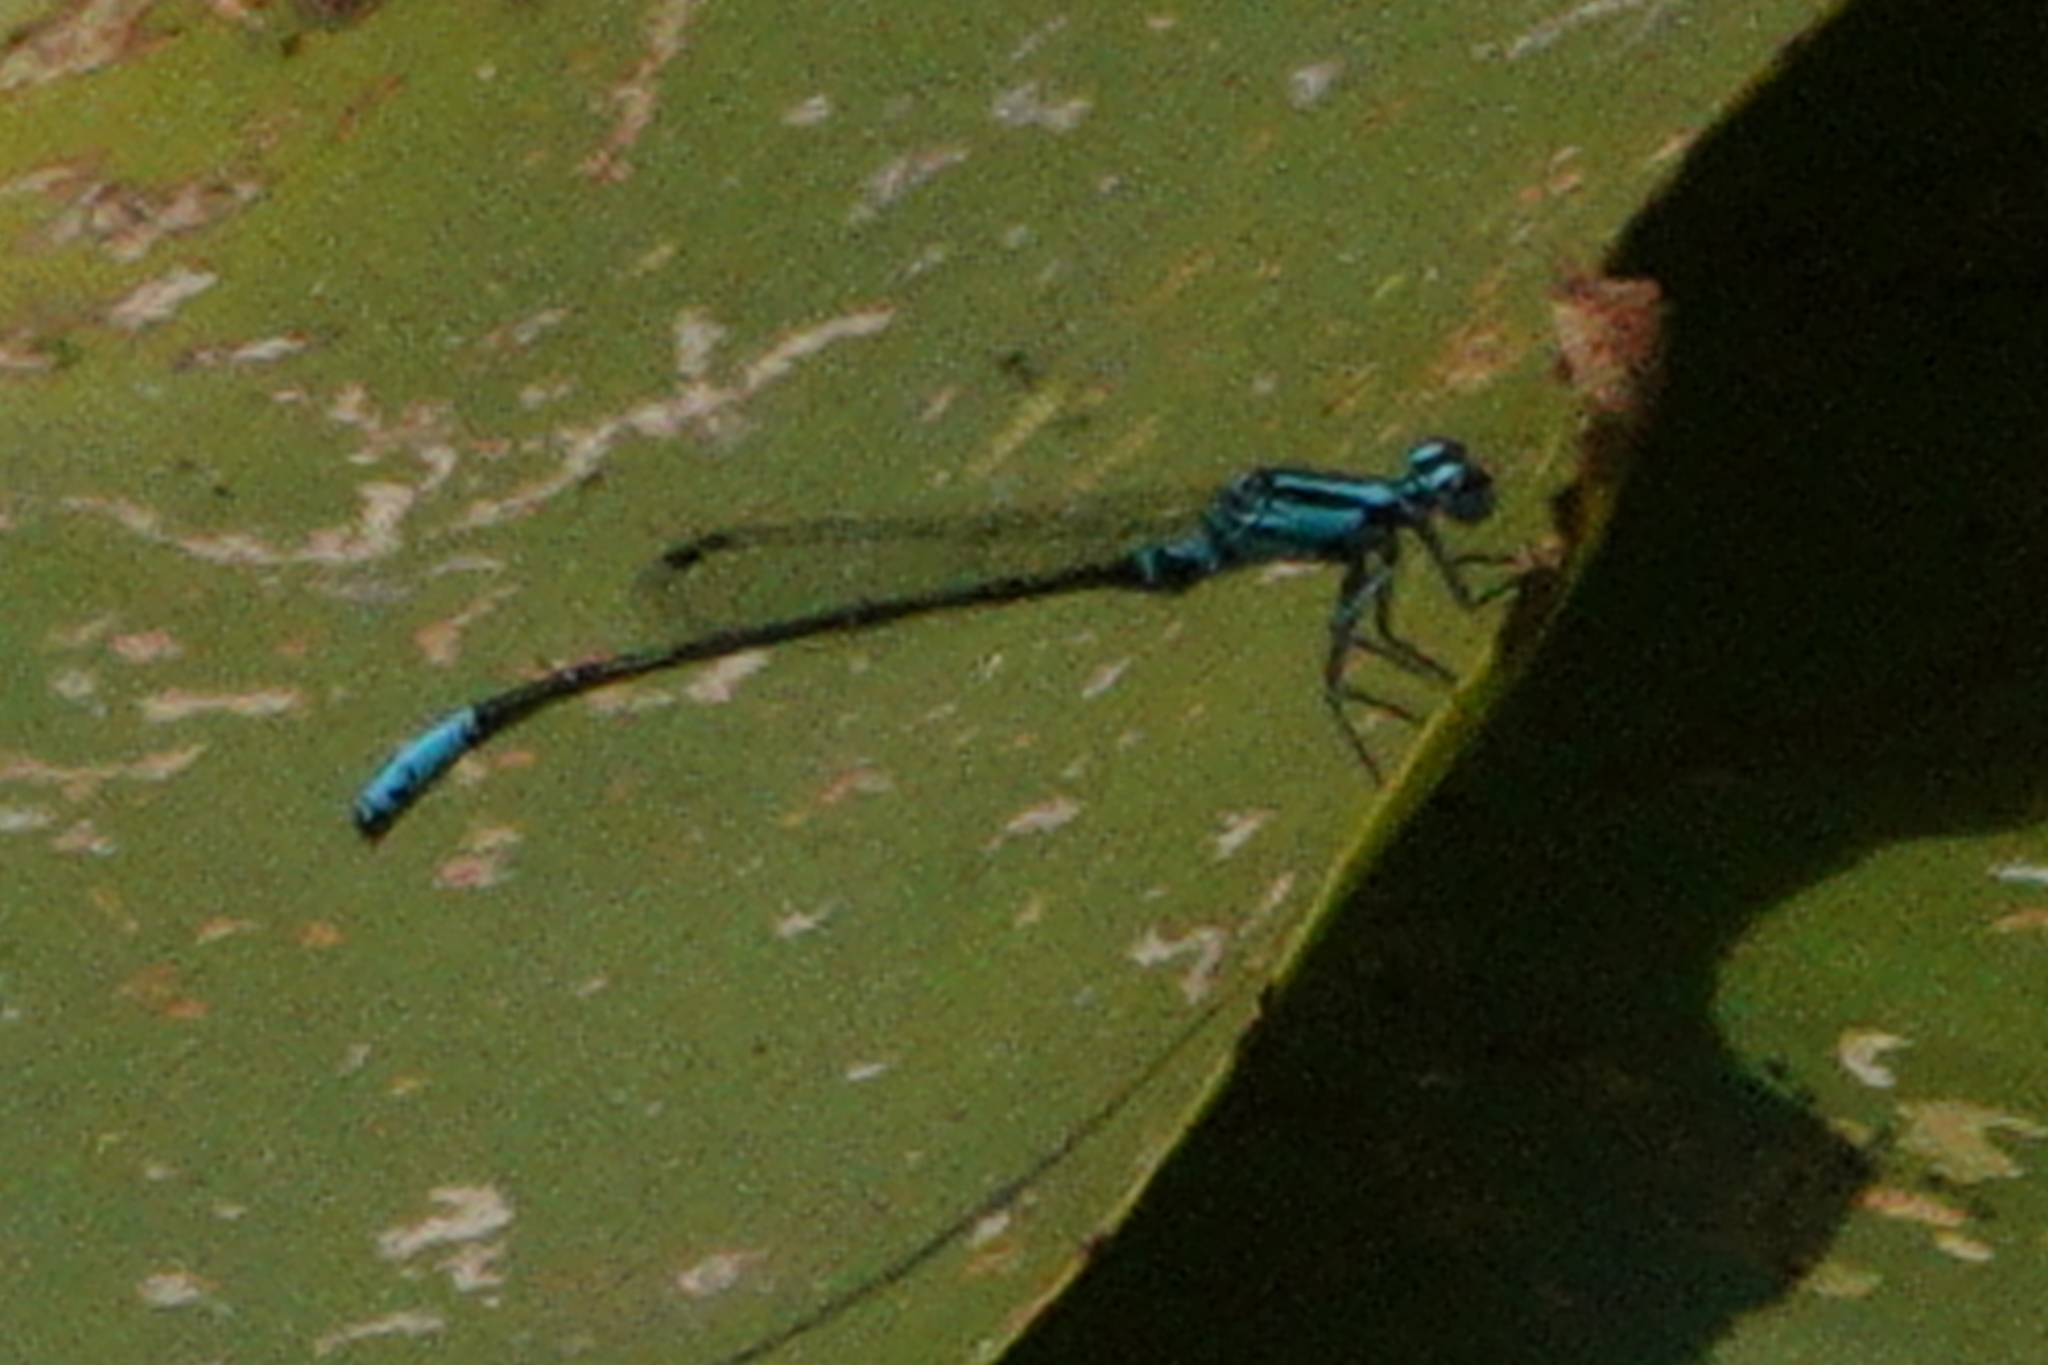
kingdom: Animalia
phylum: Arthropoda
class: Insecta
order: Odonata
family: Coenagrionidae
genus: Ischnura
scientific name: Ischnura kellicotti
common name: Lilypad forktail
